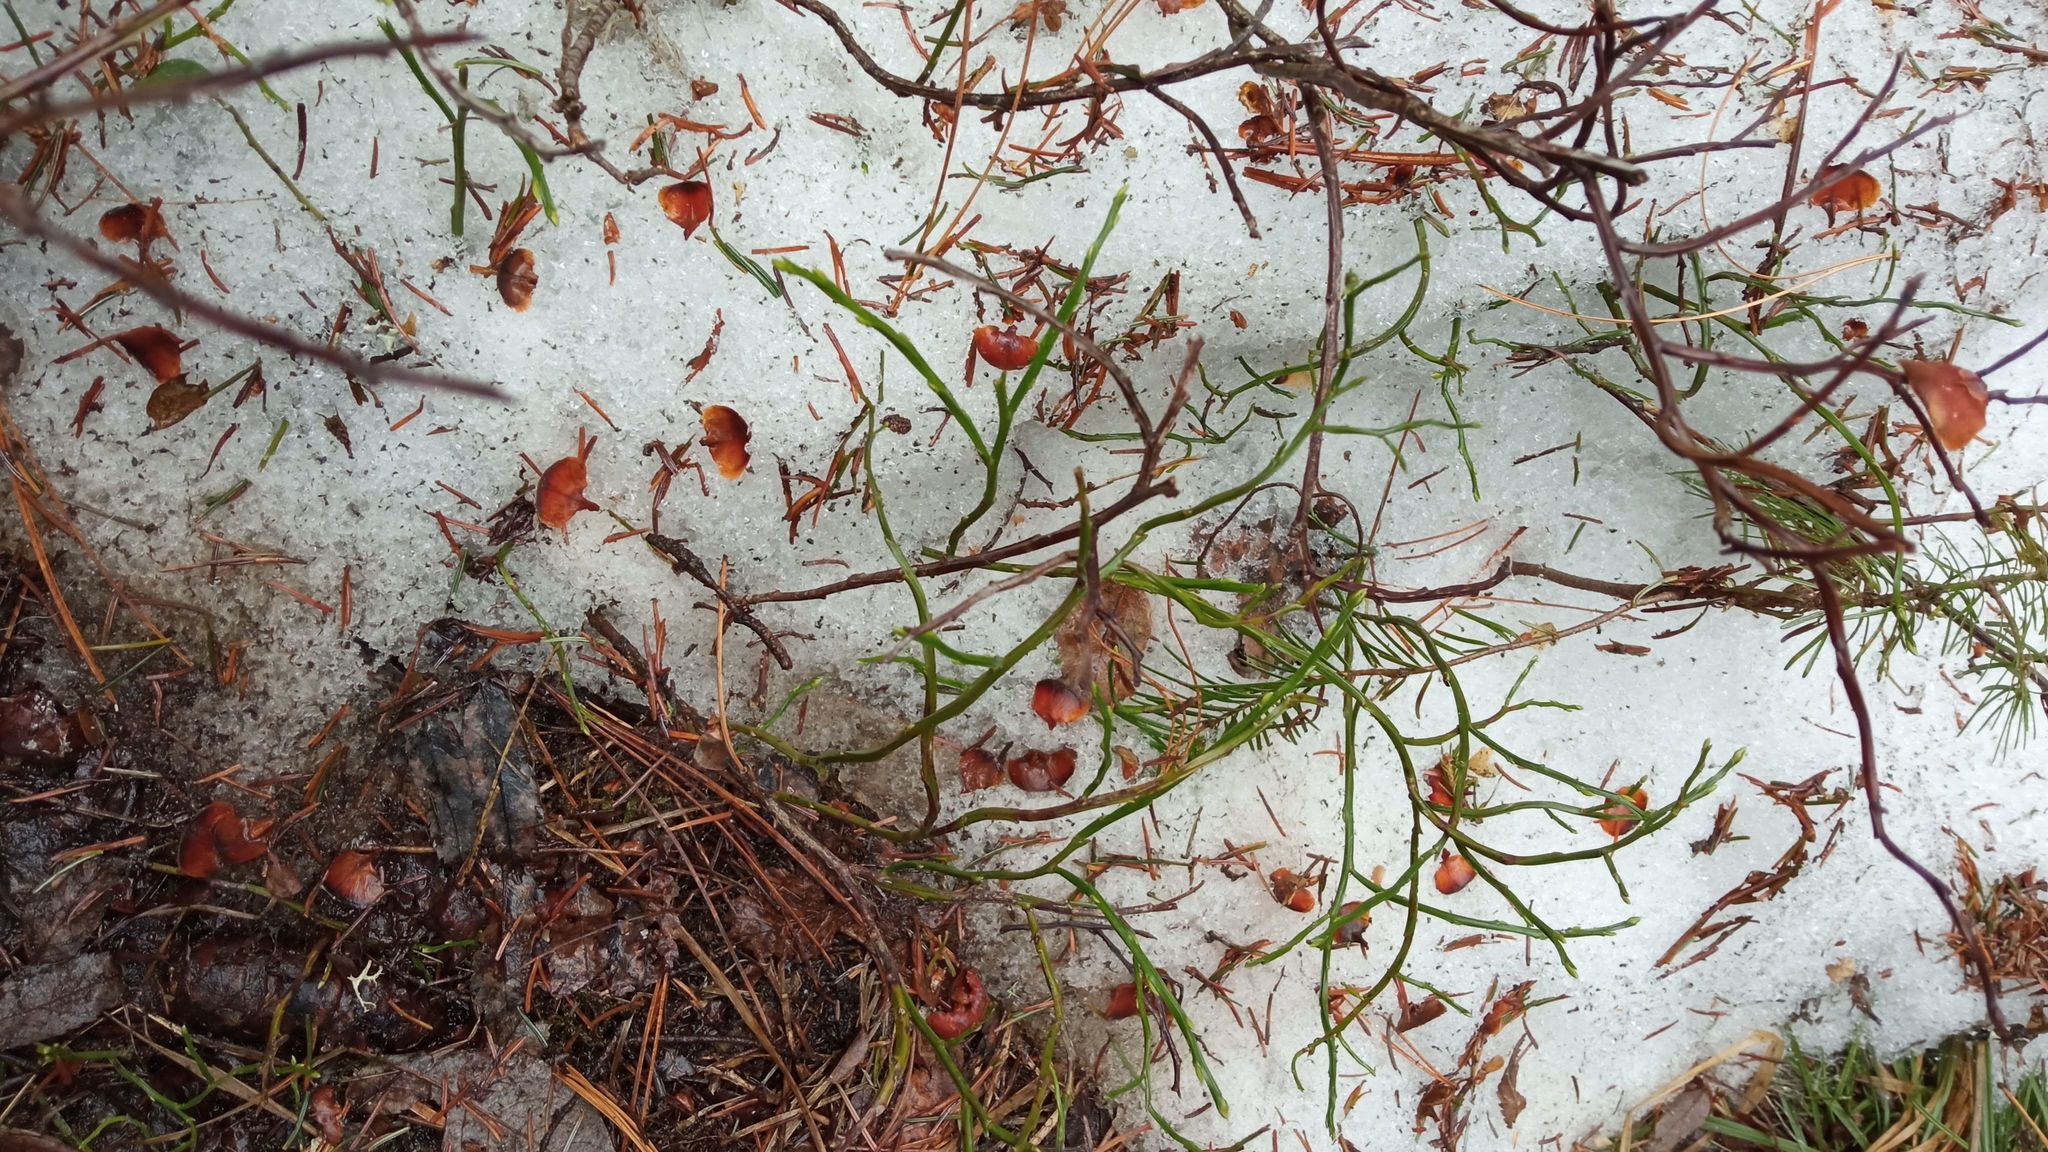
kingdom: Plantae
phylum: Tracheophyta
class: Magnoliopsida
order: Ericales
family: Ericaceae
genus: Vaccinium
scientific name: Vaccinium myrtillus
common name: Bilberry
